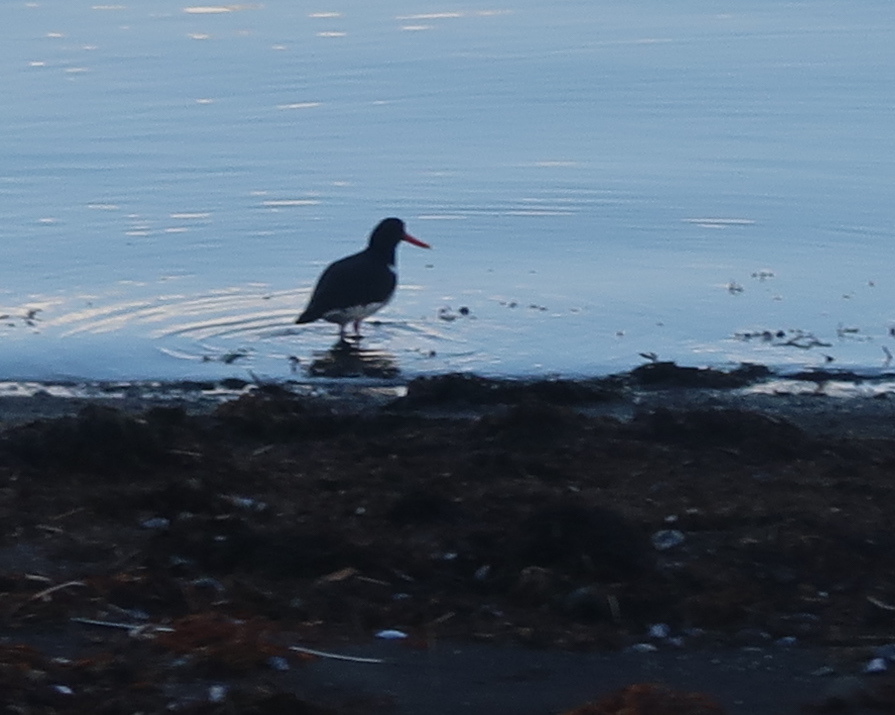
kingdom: Animalia
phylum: Chordata
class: Aves
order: Charadriiformes
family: Haematopodidae
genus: Haematopus
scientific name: Haematopus ostralegus
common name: Eurasian oystercatcher
